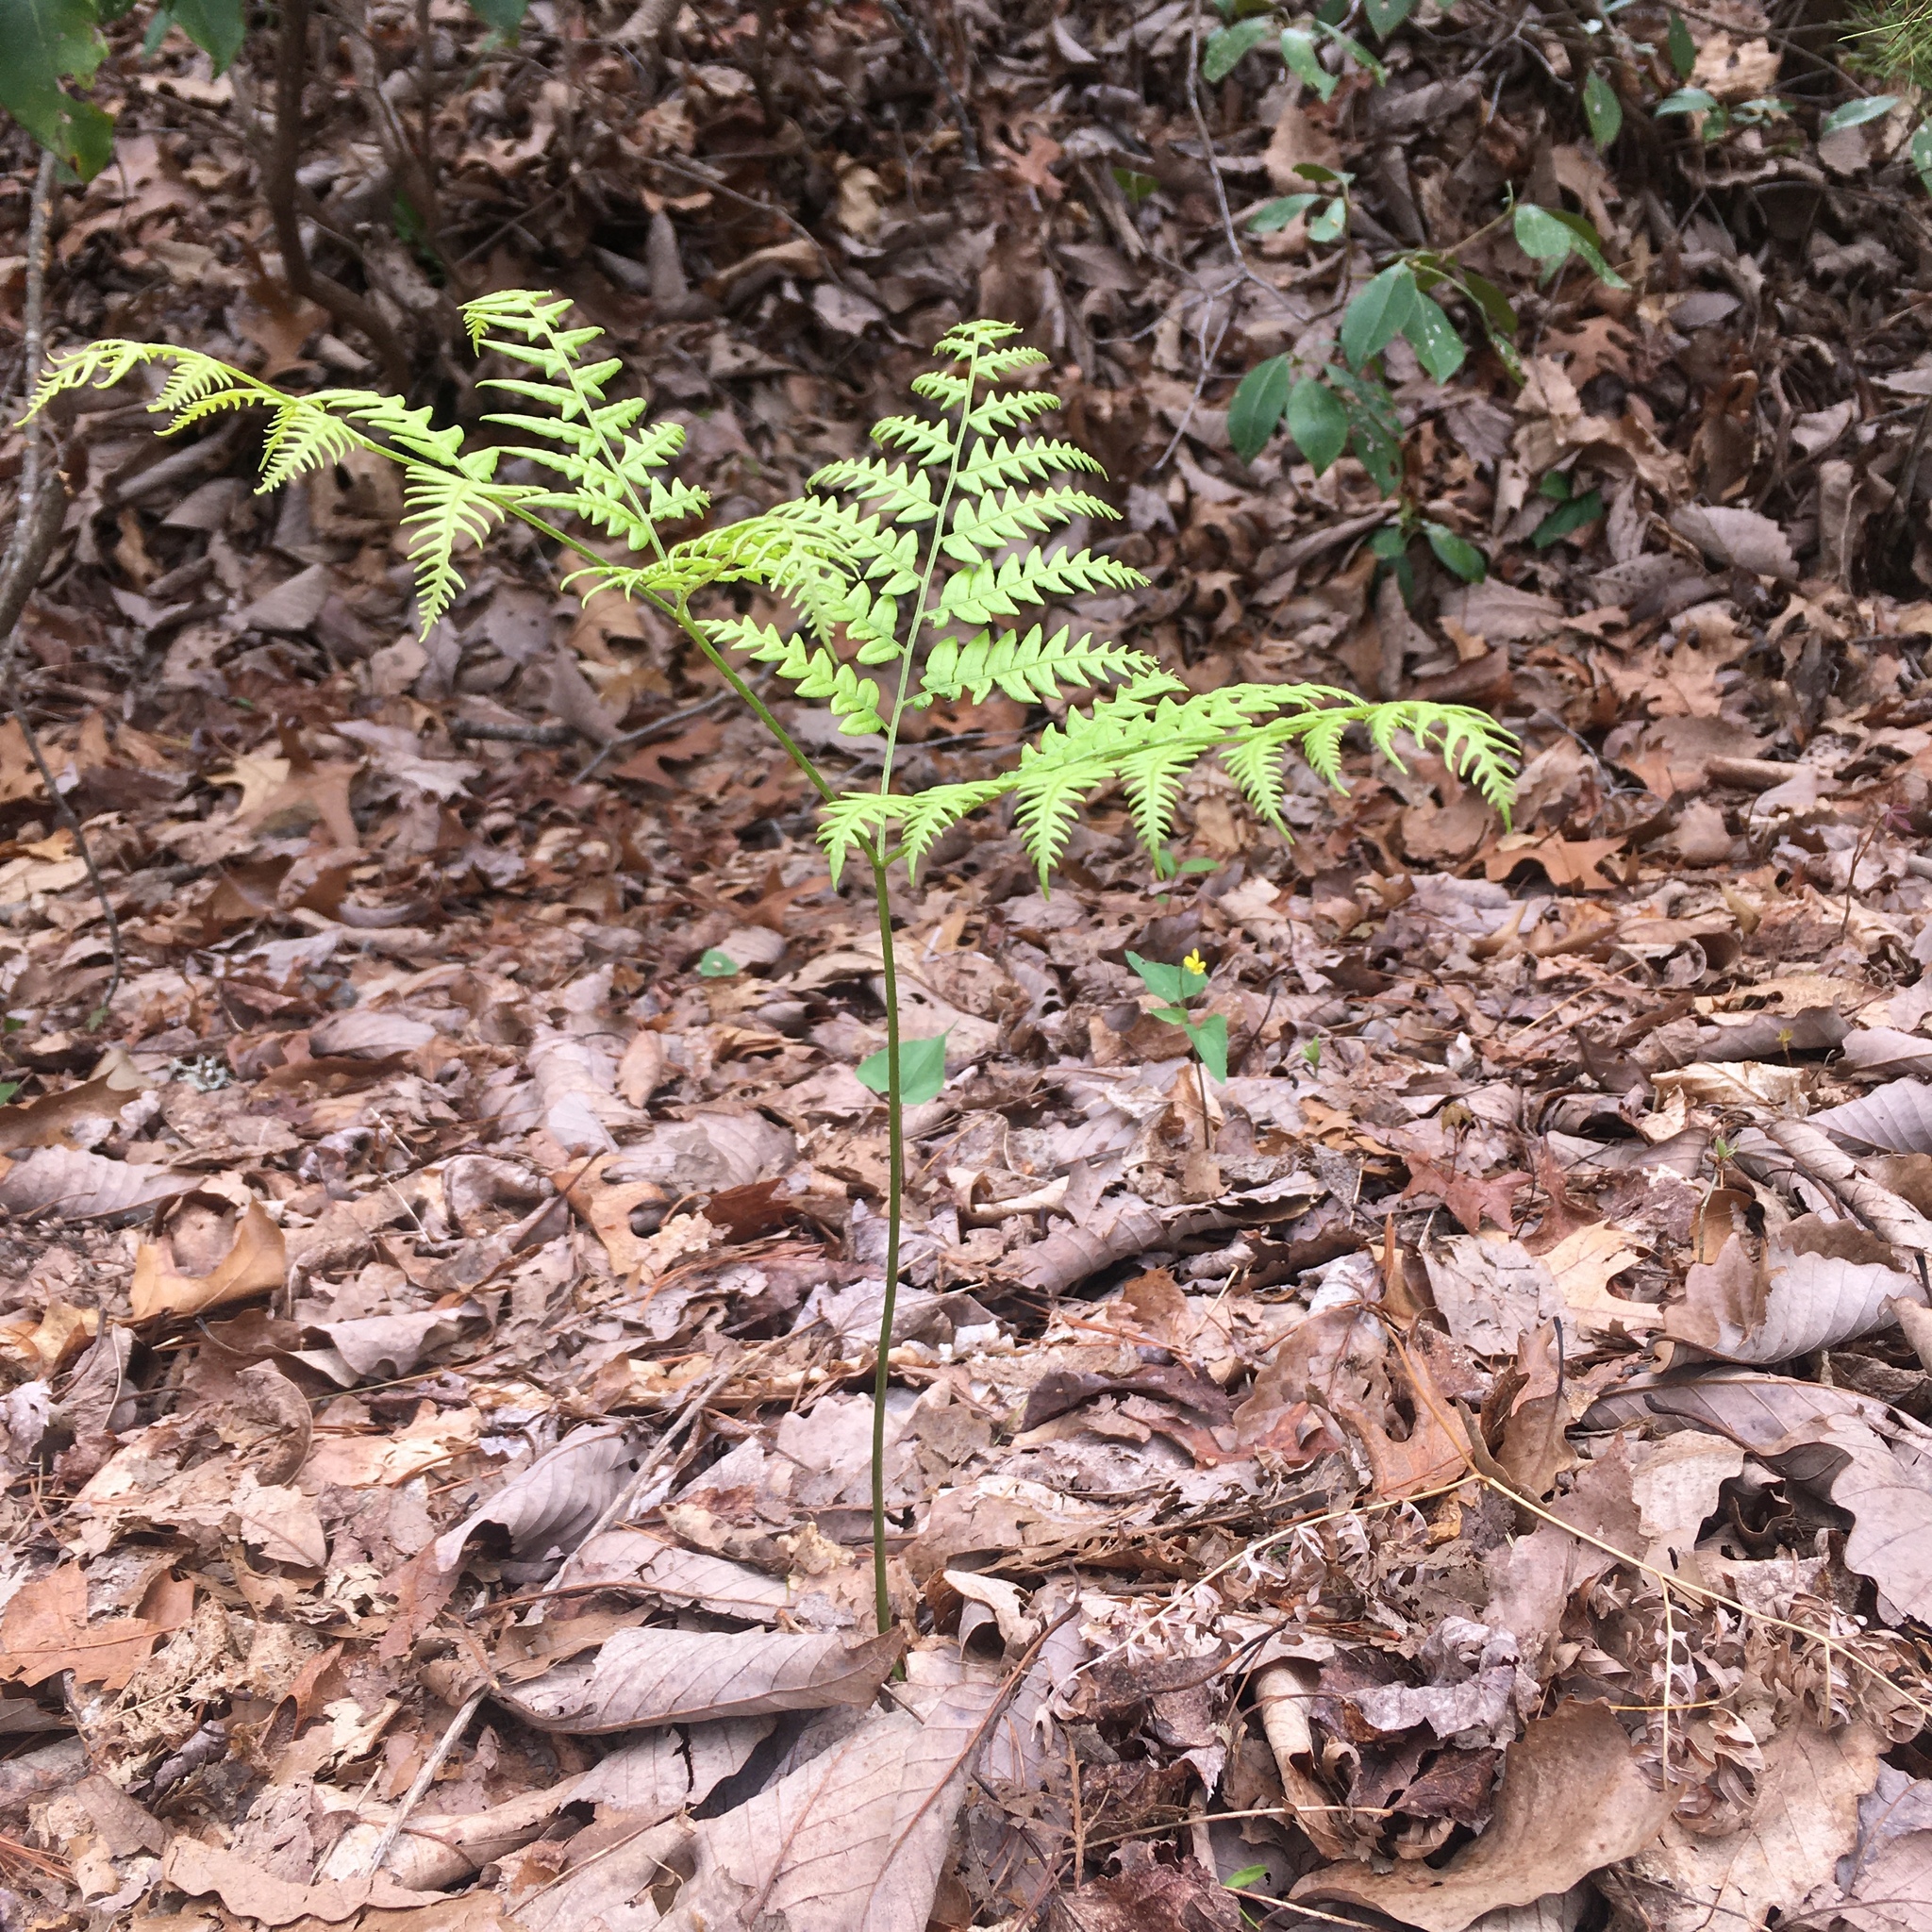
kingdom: Plantae
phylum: Tracheophyta
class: Polypodiopsida
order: Polypodiales
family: Dennstaedtiaceae
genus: Pteridium
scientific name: Pteridium aquilinum
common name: Bracken
